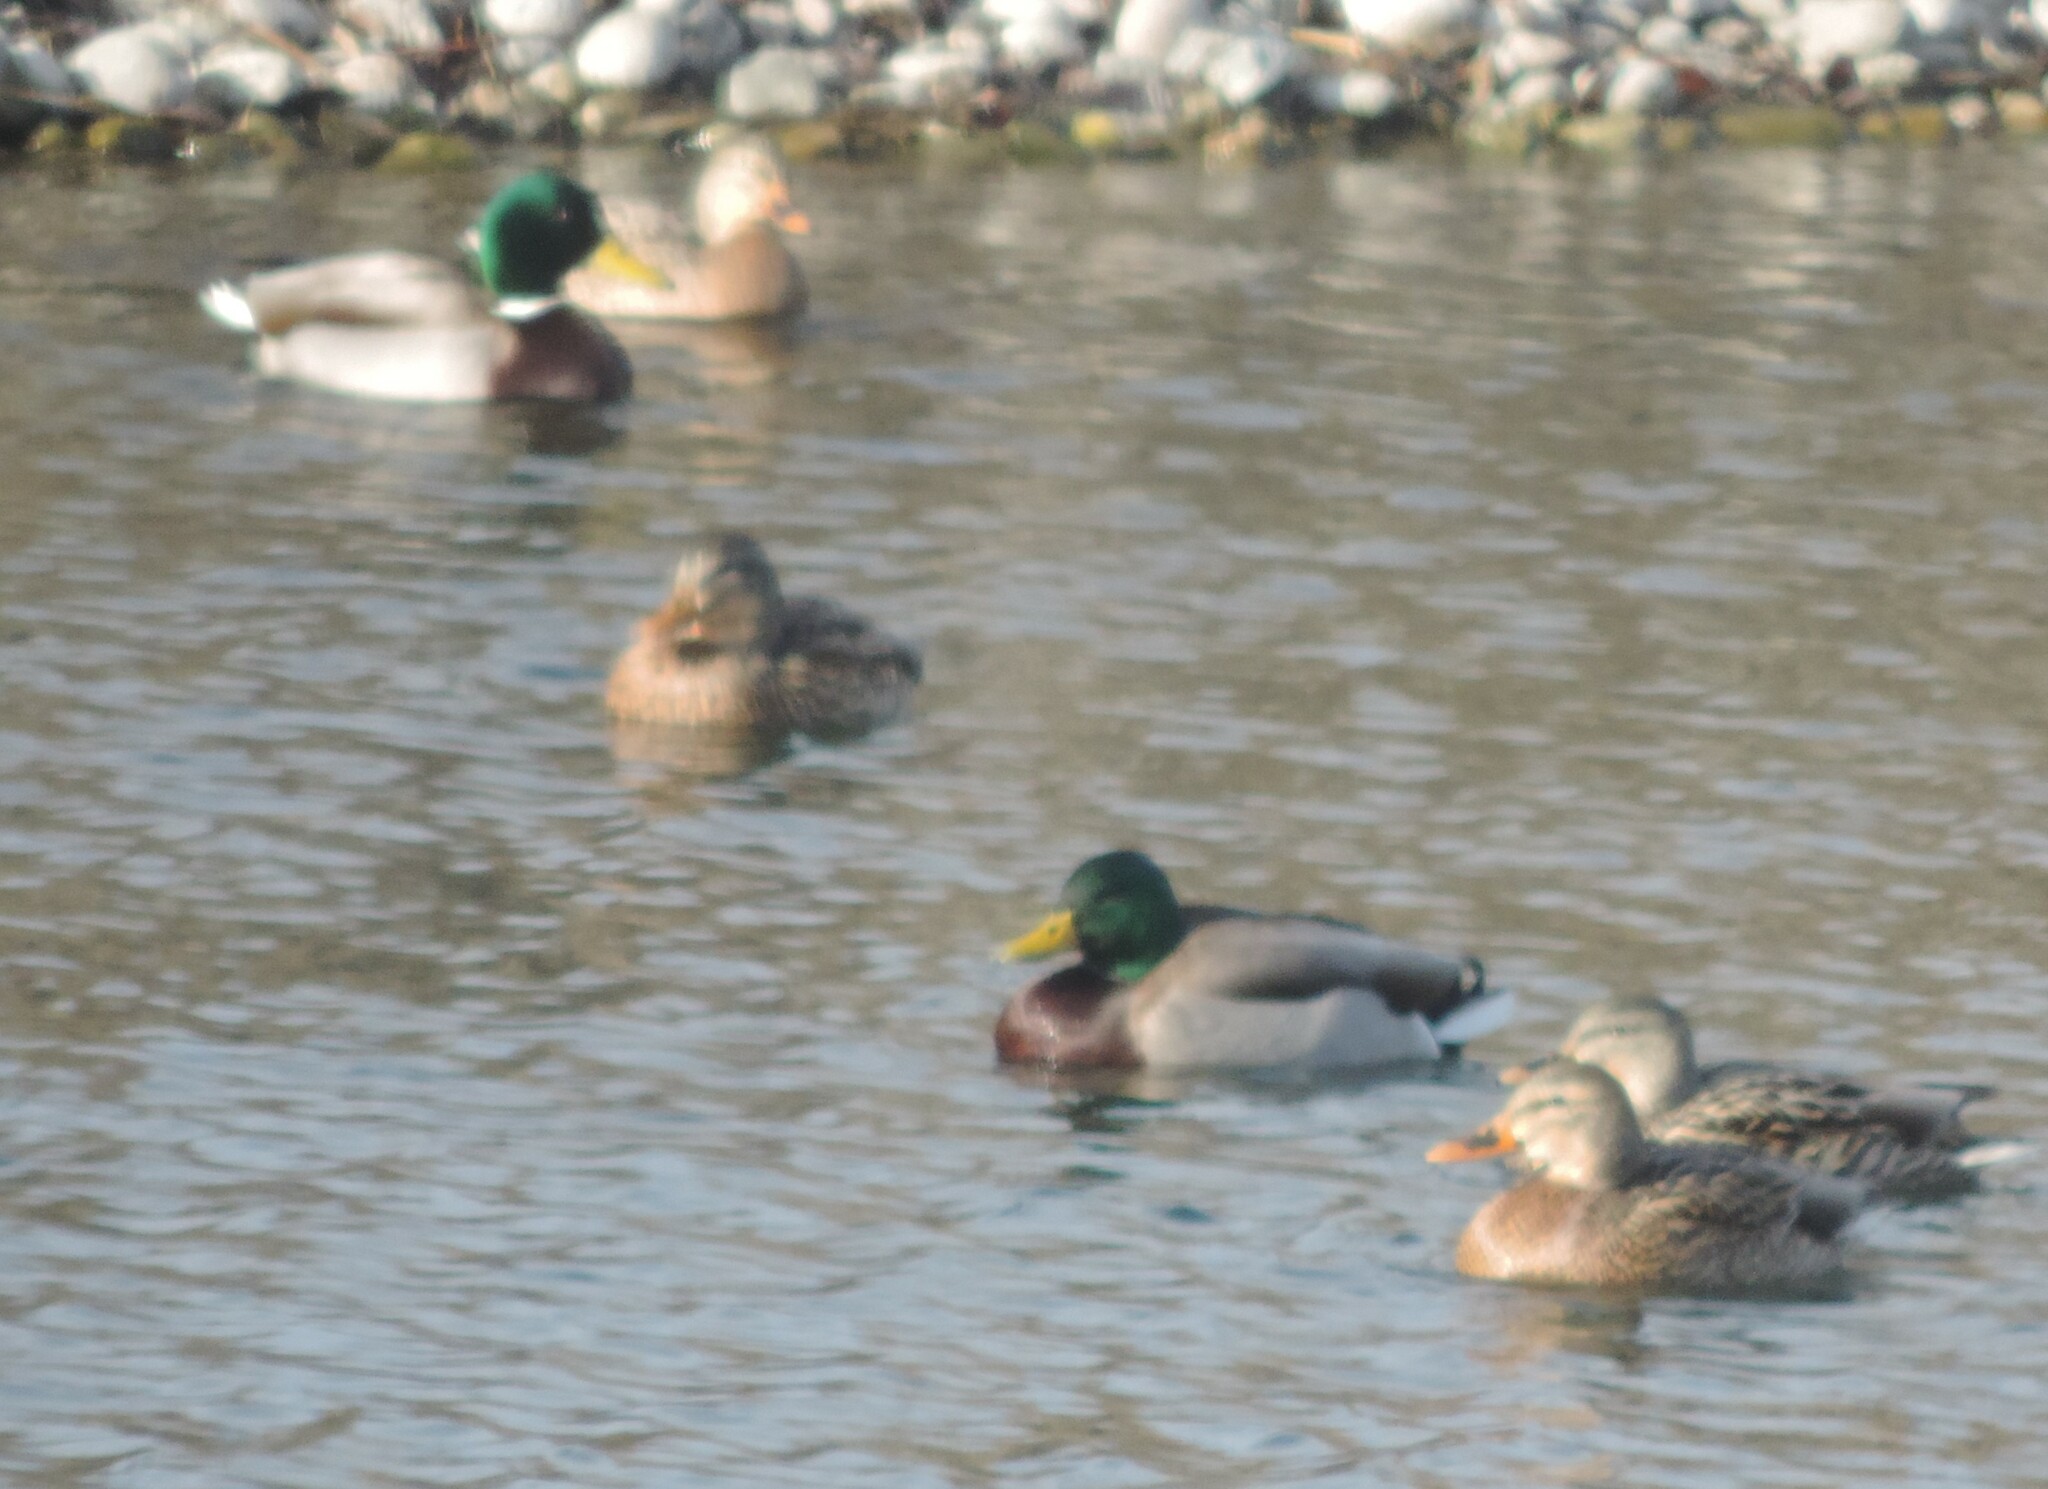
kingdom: Animalia
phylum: Chordata
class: Aves
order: Anseriformes
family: Anatidae
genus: Anas
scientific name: Anas platyrhynchos
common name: Mallard
